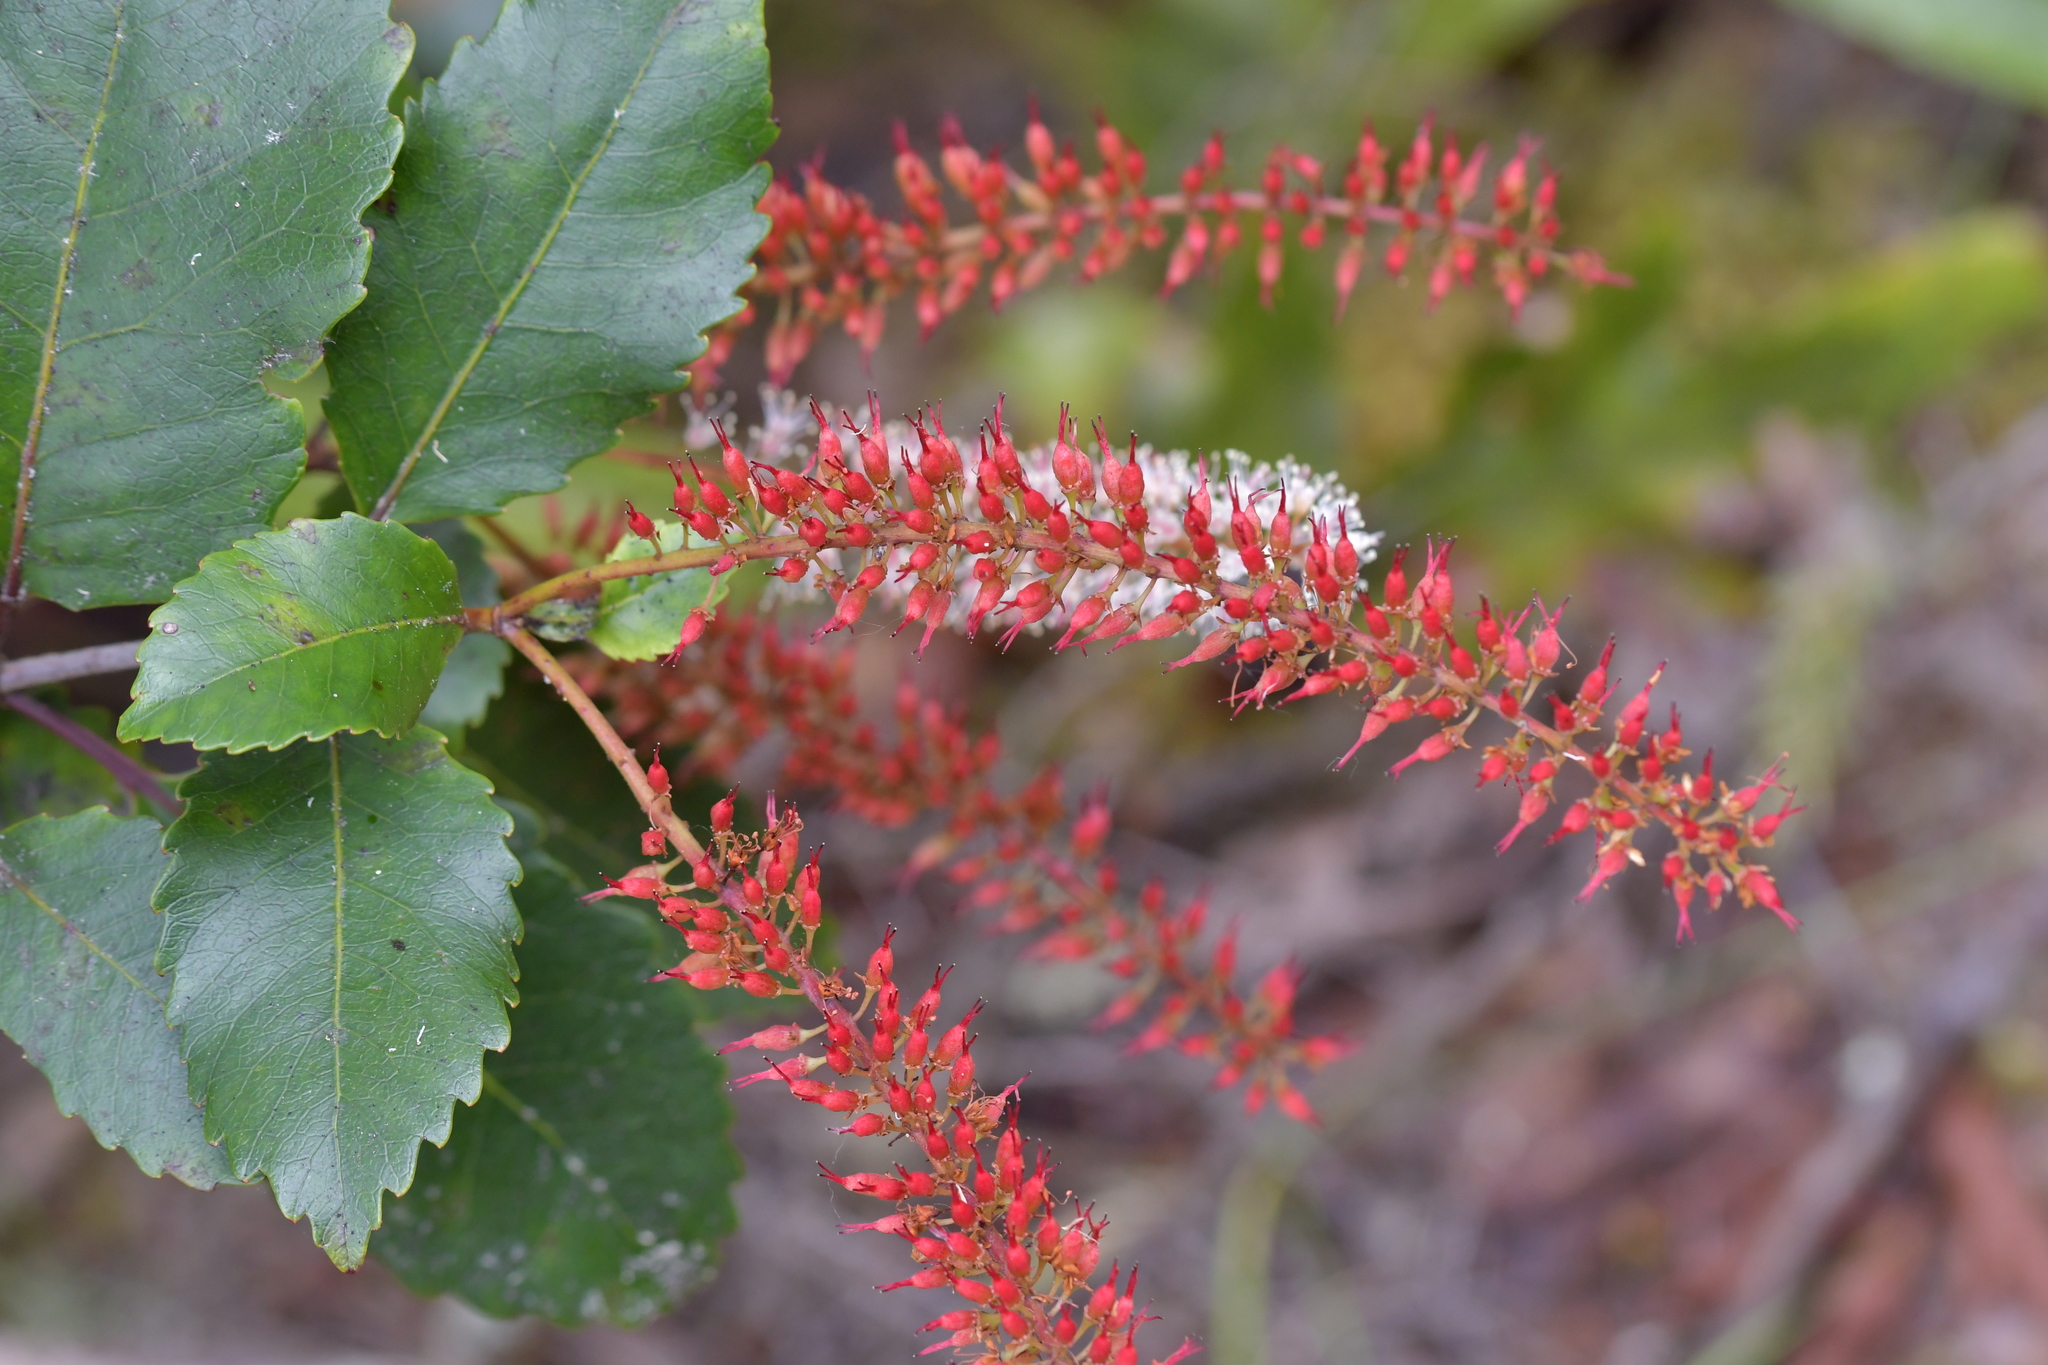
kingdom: Plantae
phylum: Tracheophyta
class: Magnoliopsida
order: Oxalidales
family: Cunoniaceae
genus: Pterophylla
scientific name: Pterophylla racemosa
